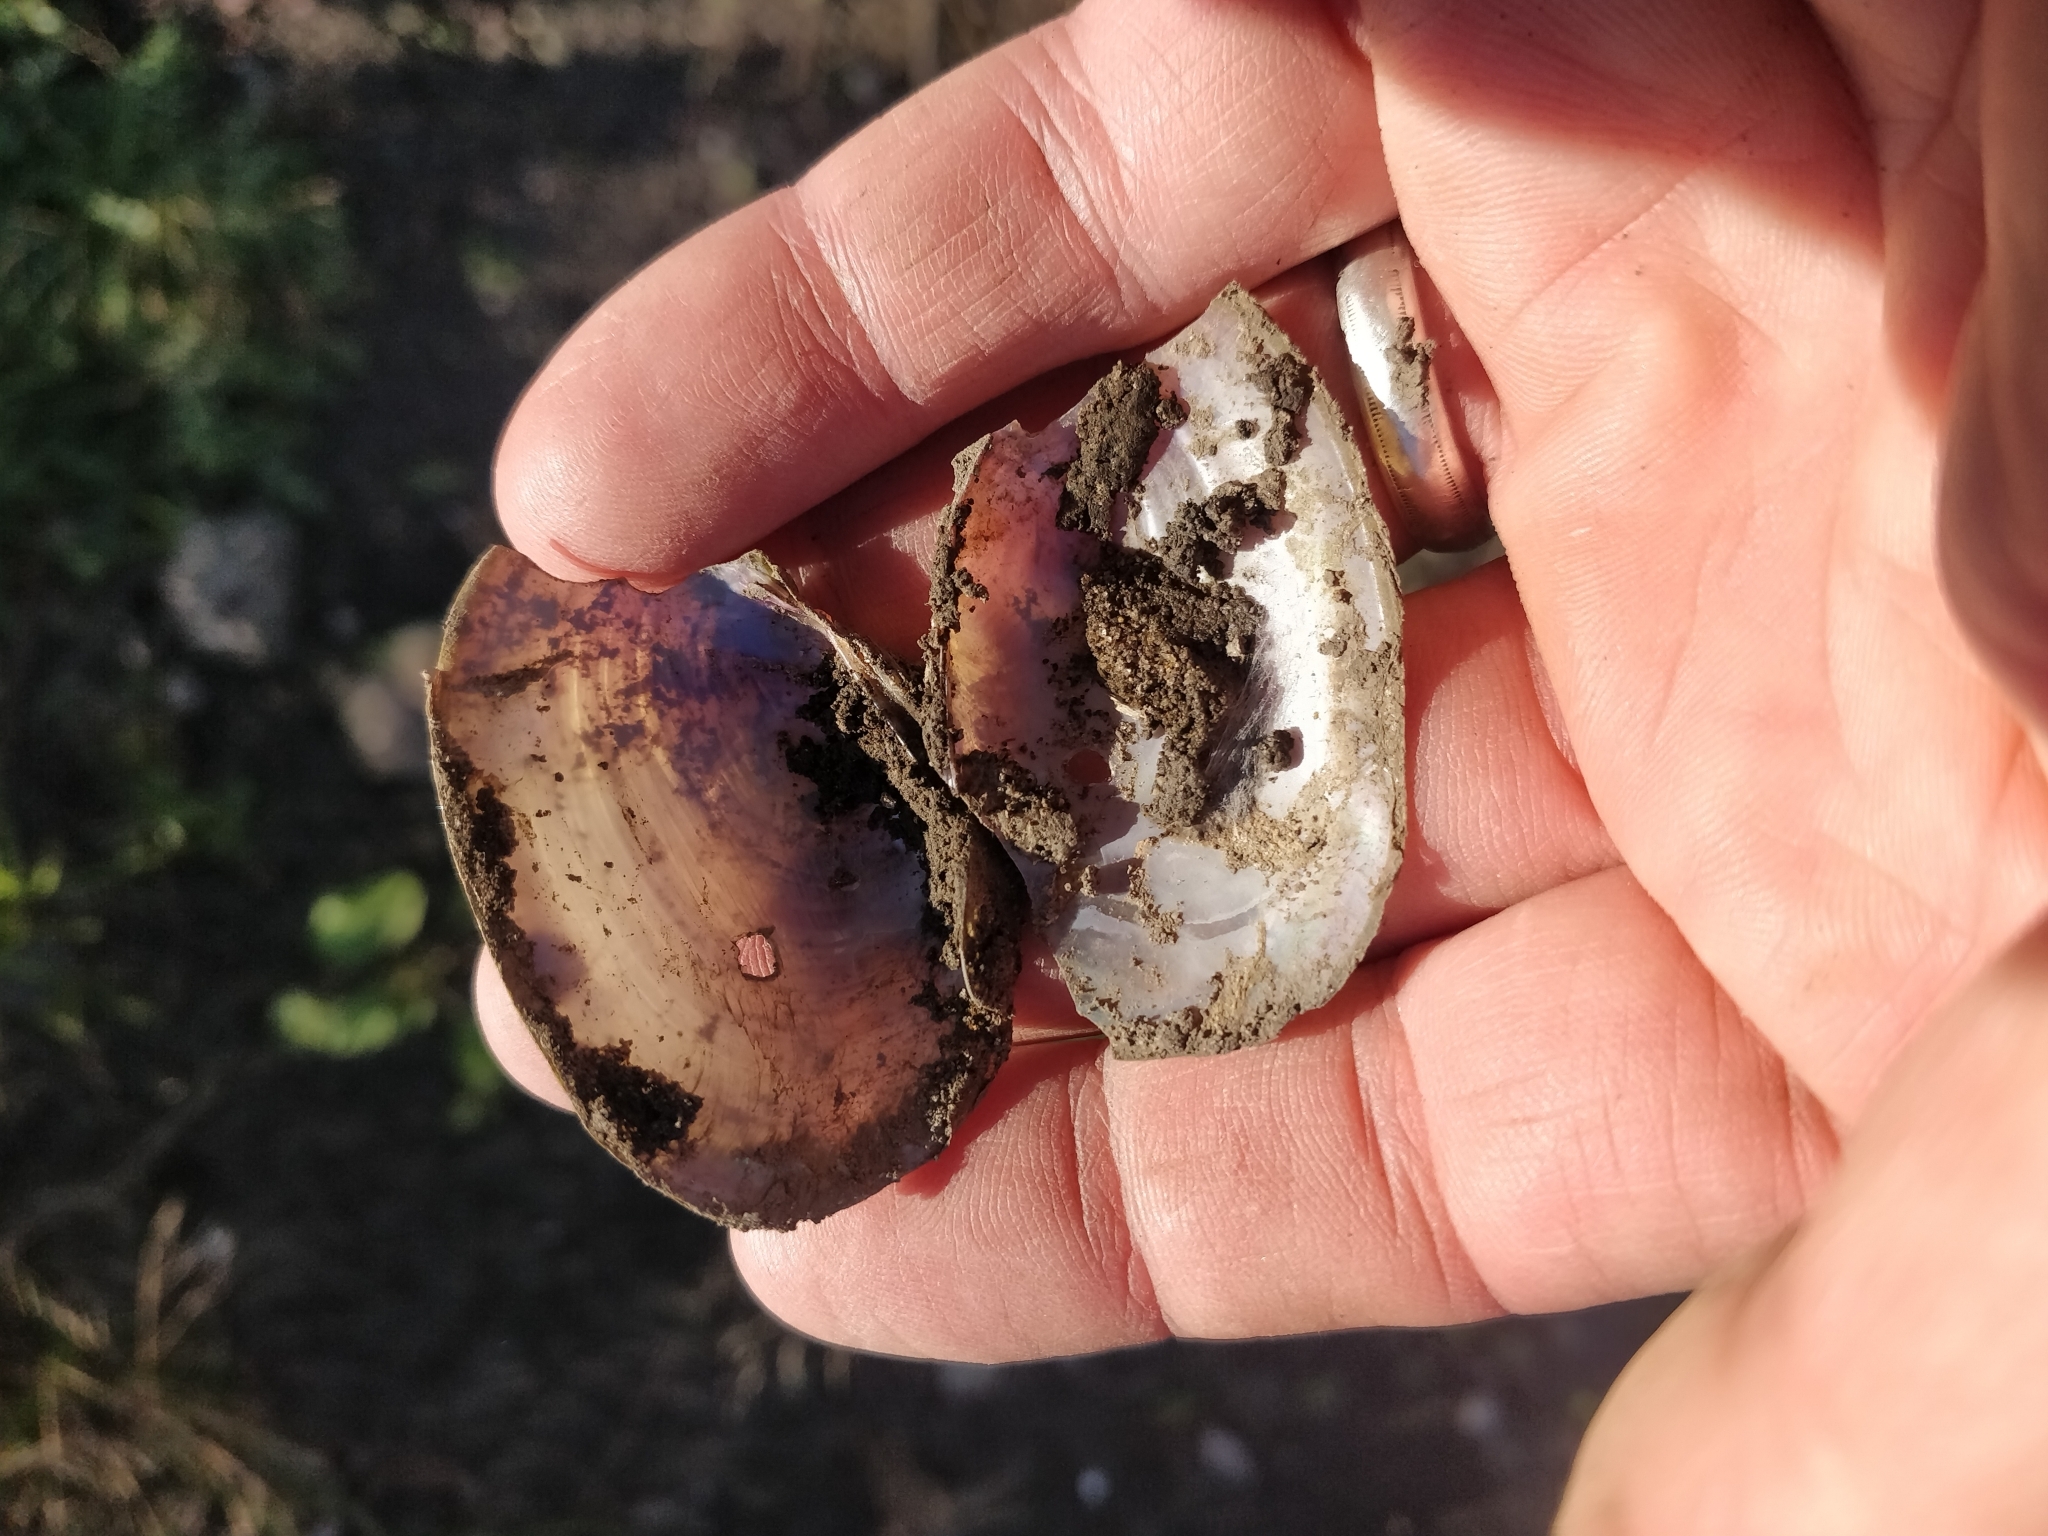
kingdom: Animalia
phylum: Mollusca
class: Bivalvia
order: Unionida
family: Unionidae
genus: Potamilus
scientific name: Potamilus ohiensis
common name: Pink papershell
